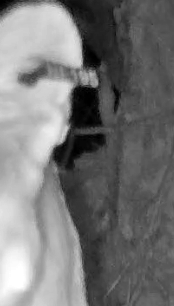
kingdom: Animalia
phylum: Chordata
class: Mammalia
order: Carnivora
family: Felidae
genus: Puma
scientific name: Puma concolor
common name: Puma
